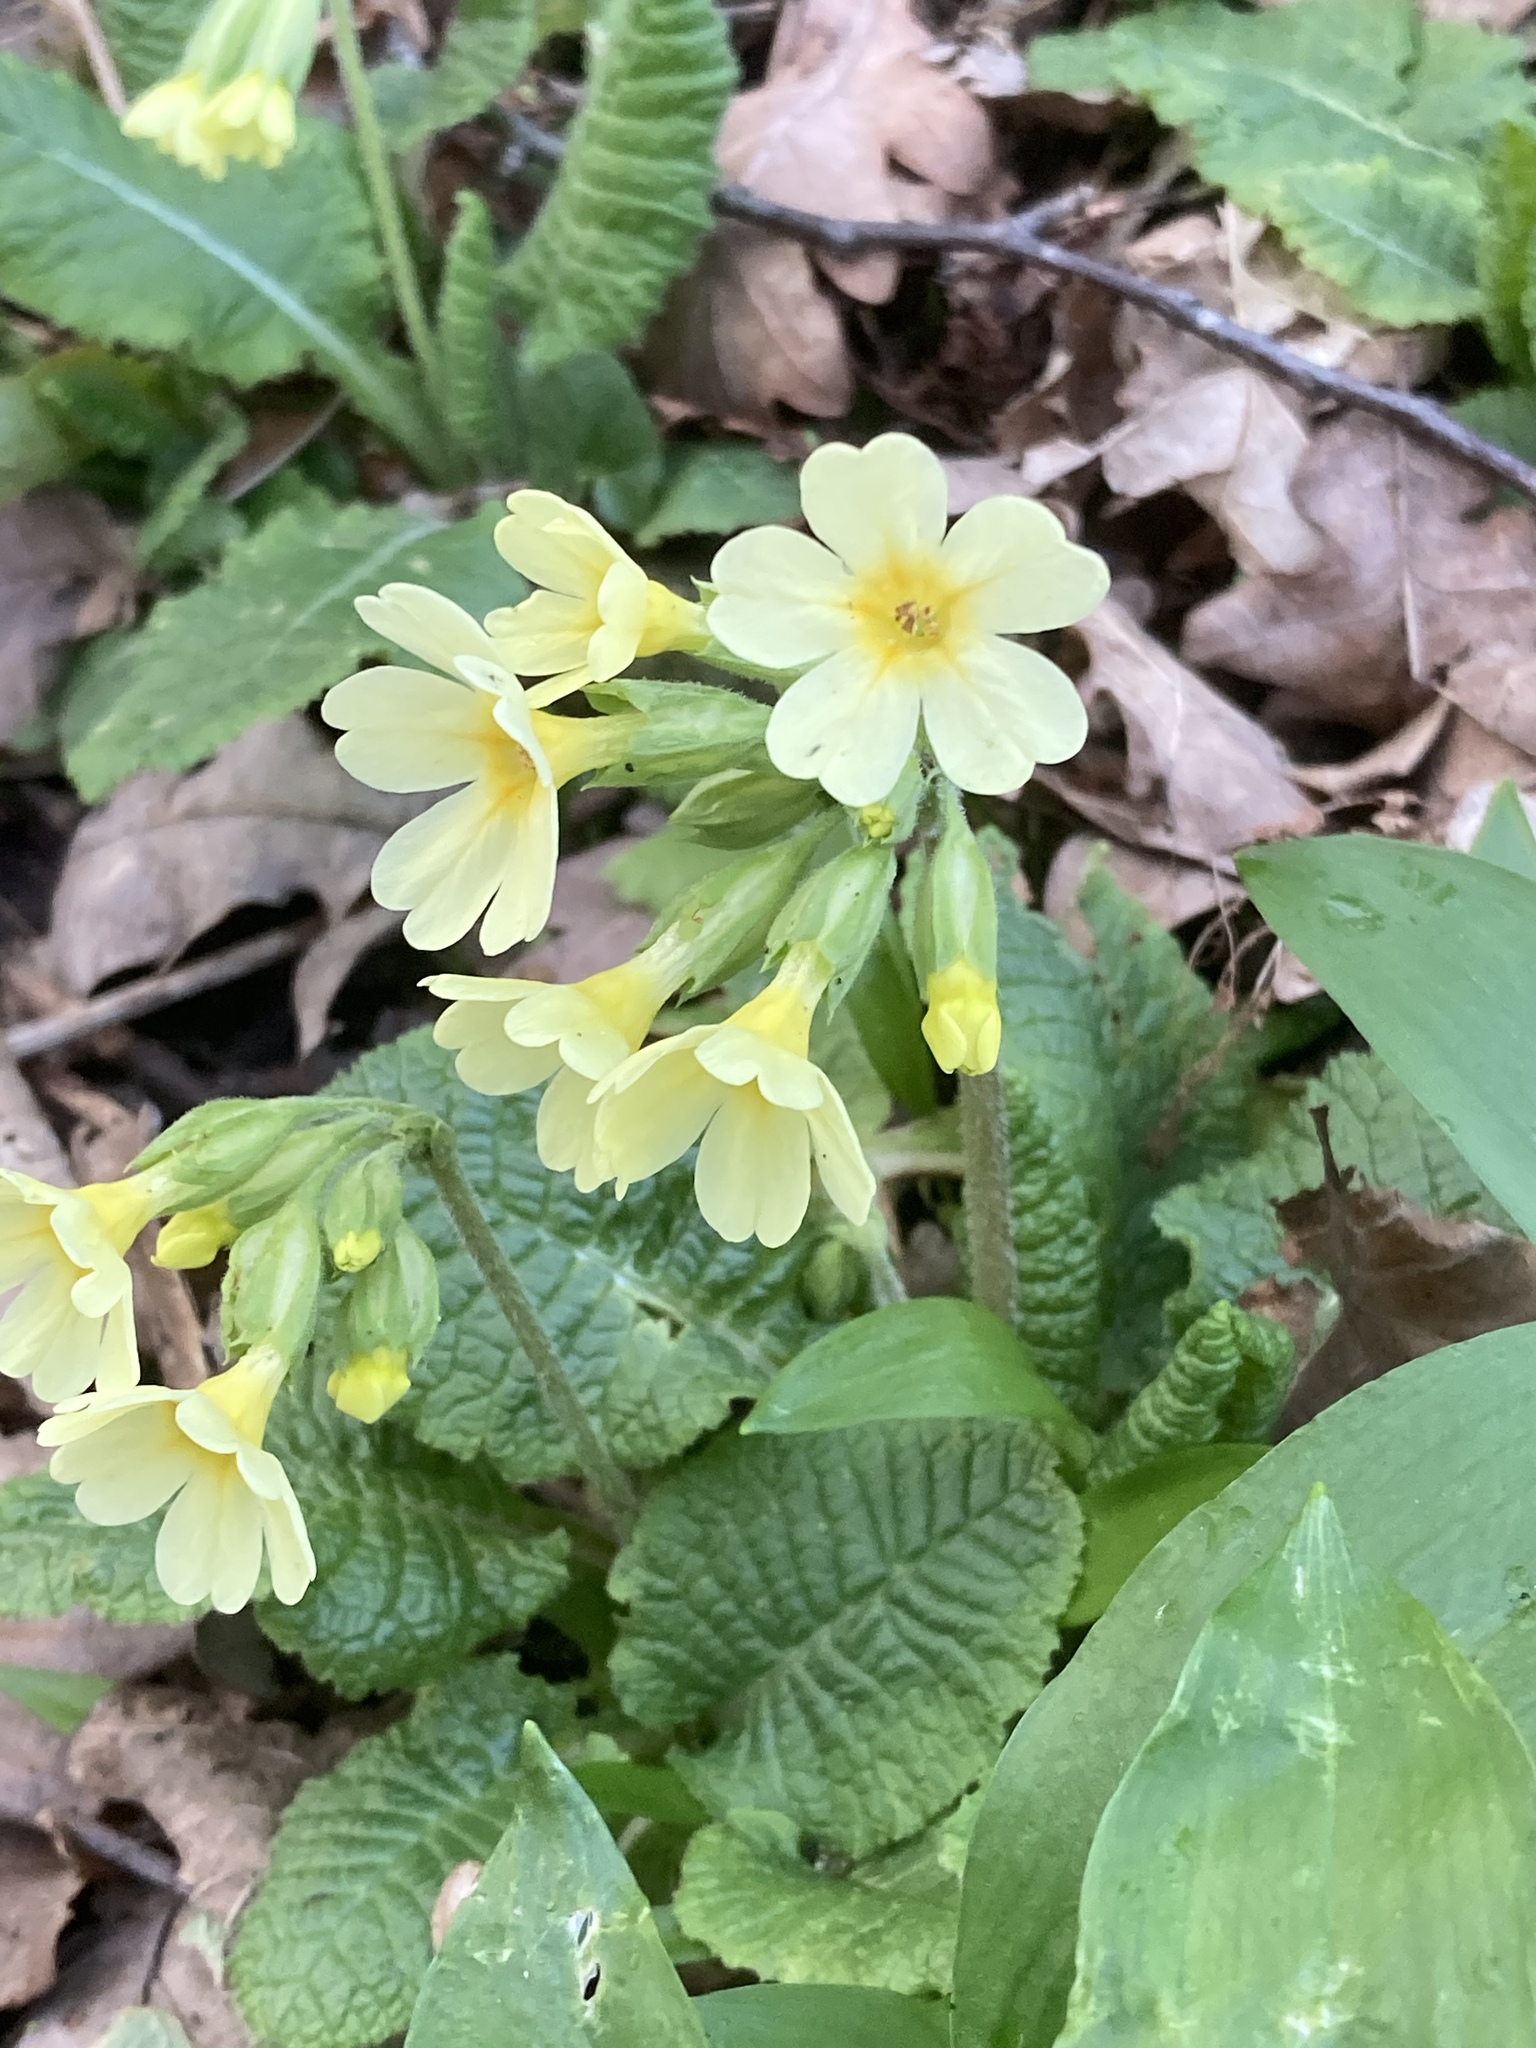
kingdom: Plantae
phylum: Tracheophyta
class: Magnoliopsida
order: Ericales
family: Primulaceae
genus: Primula
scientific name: Primula elatior
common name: Oxlip
